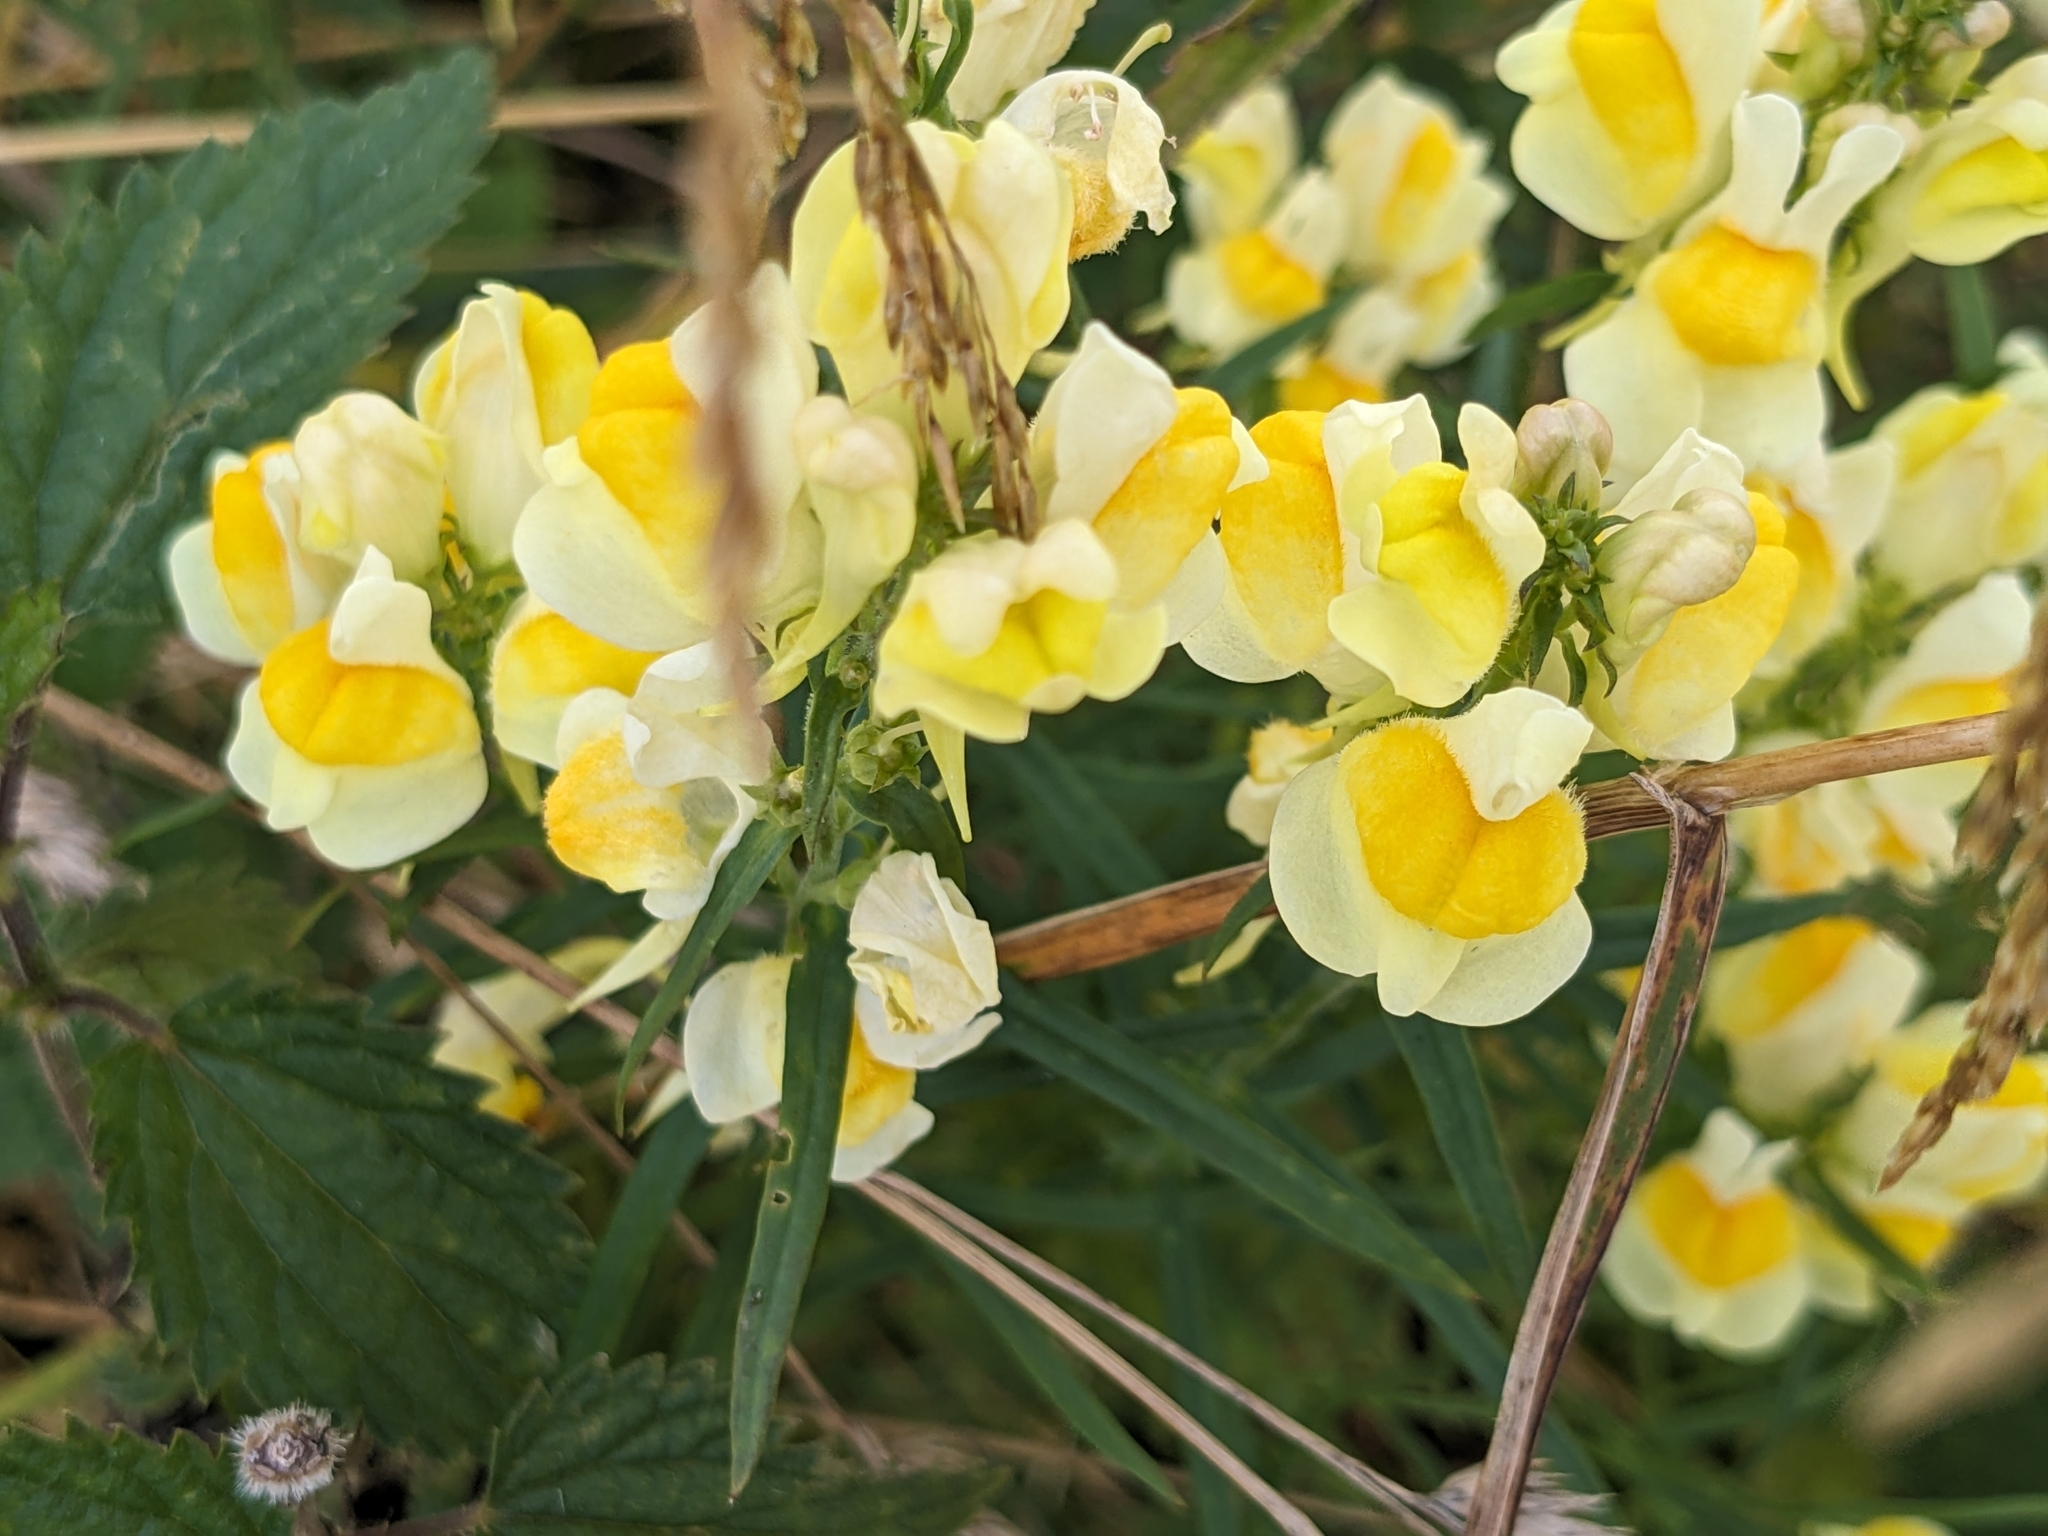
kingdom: Plantae
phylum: Tracheophyta
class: Magnoliopsida
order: Lamiales
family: Plantaginaceae
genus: Linaria
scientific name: Linaria vulgaris
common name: Butter and eggs
